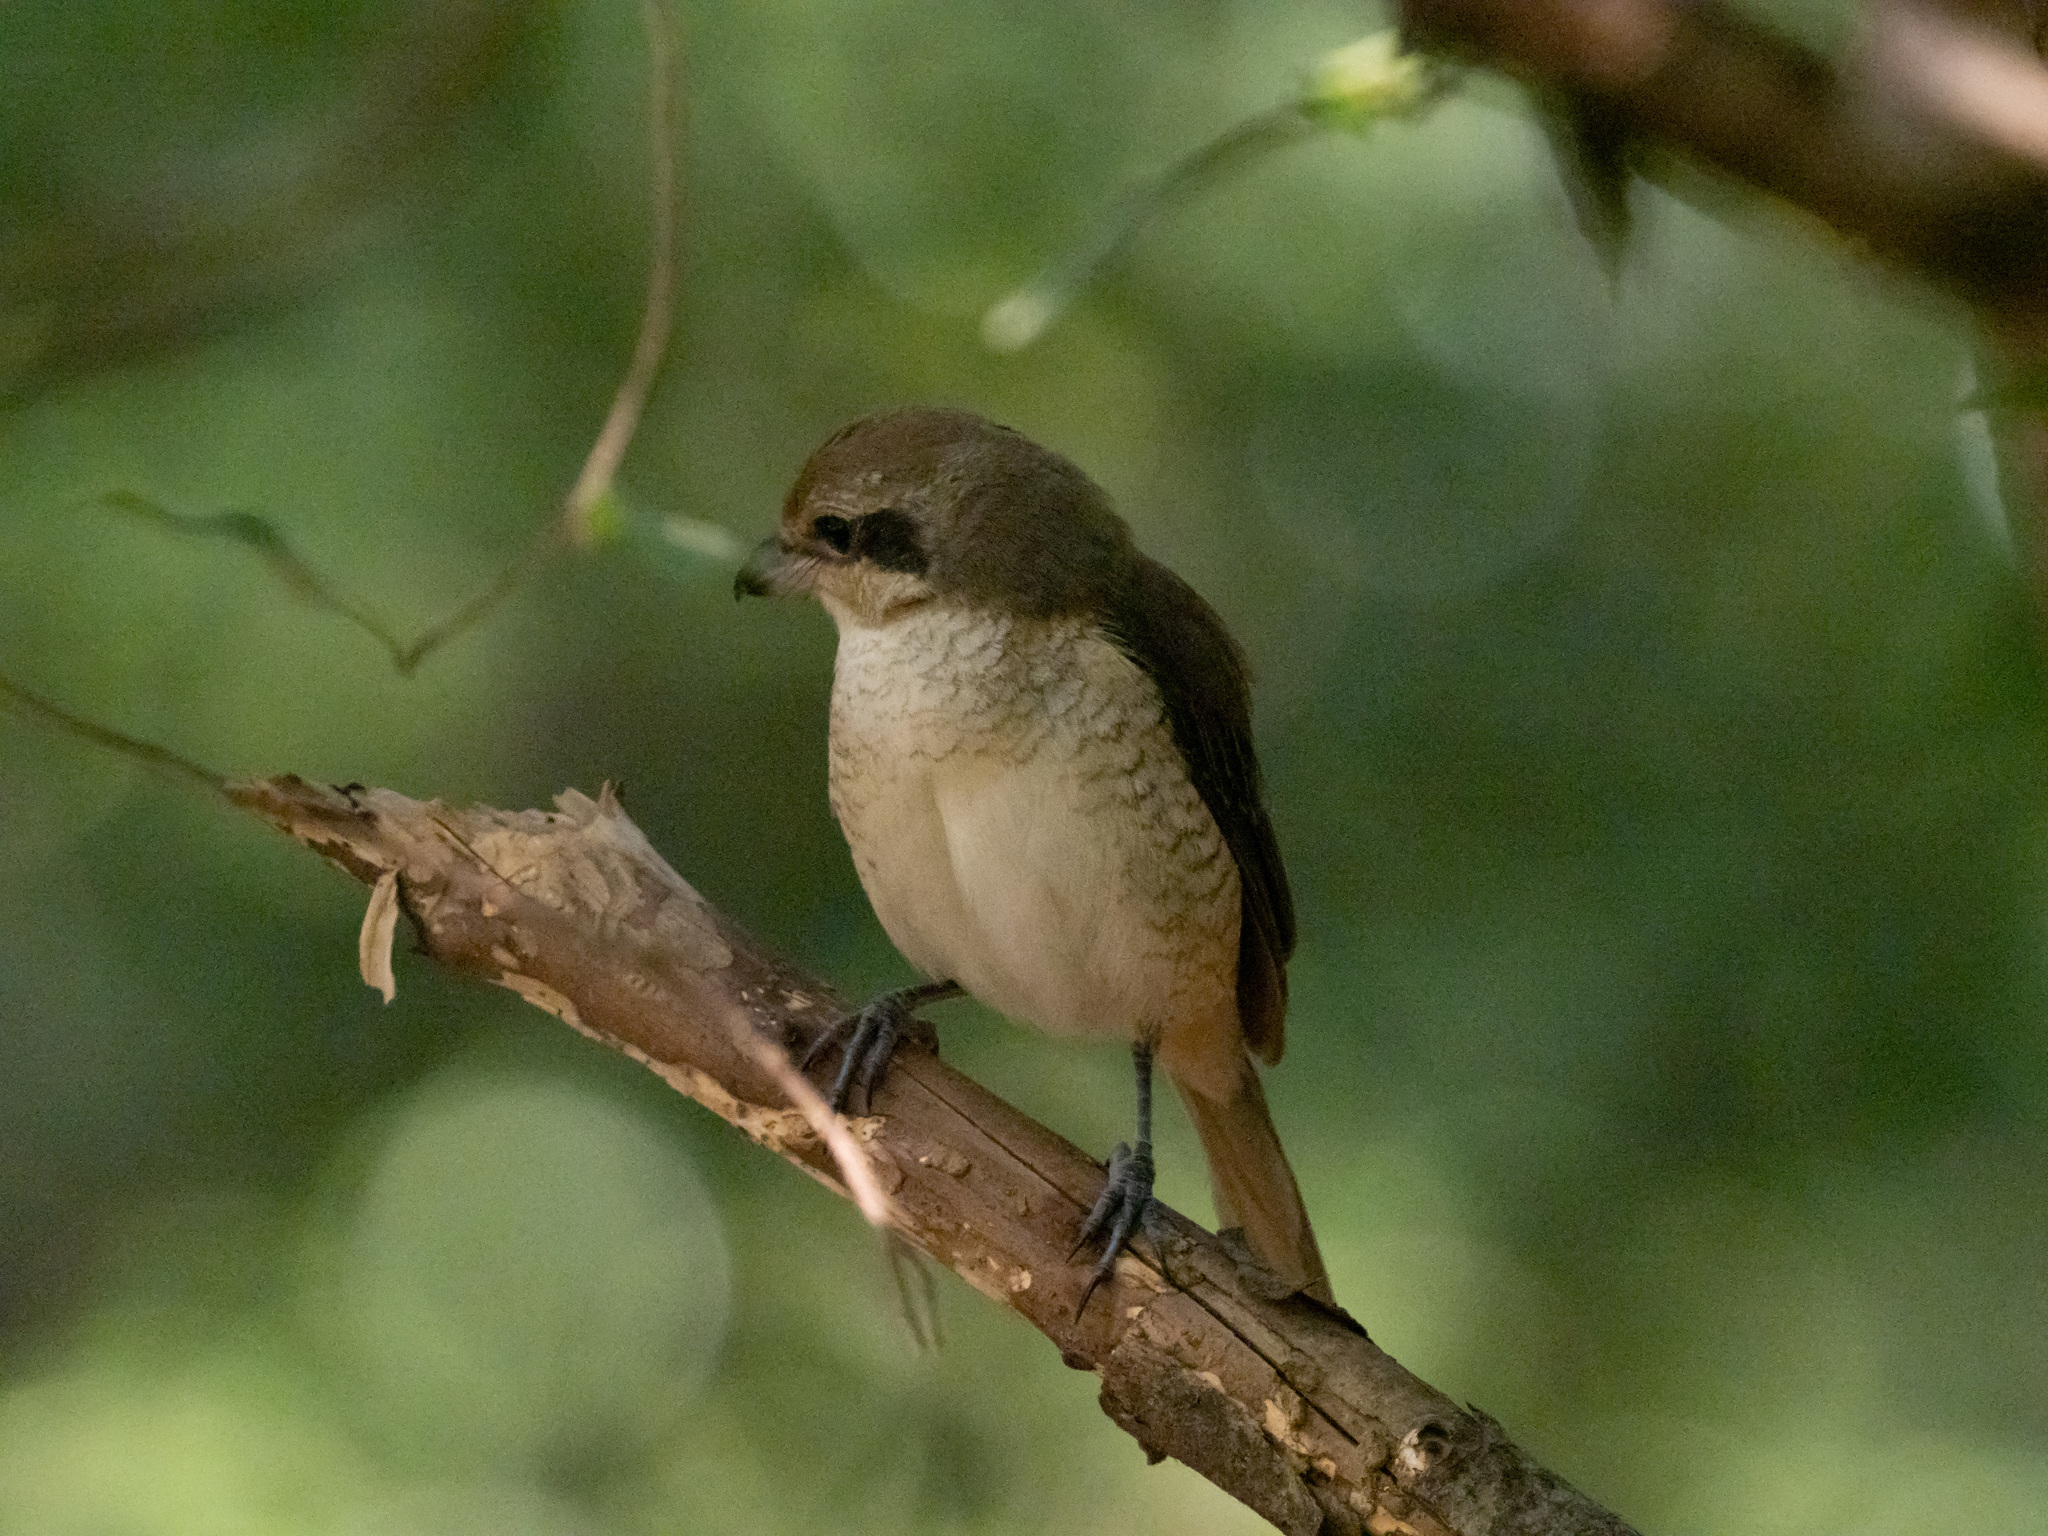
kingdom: Animalia
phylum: Chordata
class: Aves
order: Passeriformes
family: Laniidae
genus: Lanius
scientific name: Lanius cristatus
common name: Brown shrike
